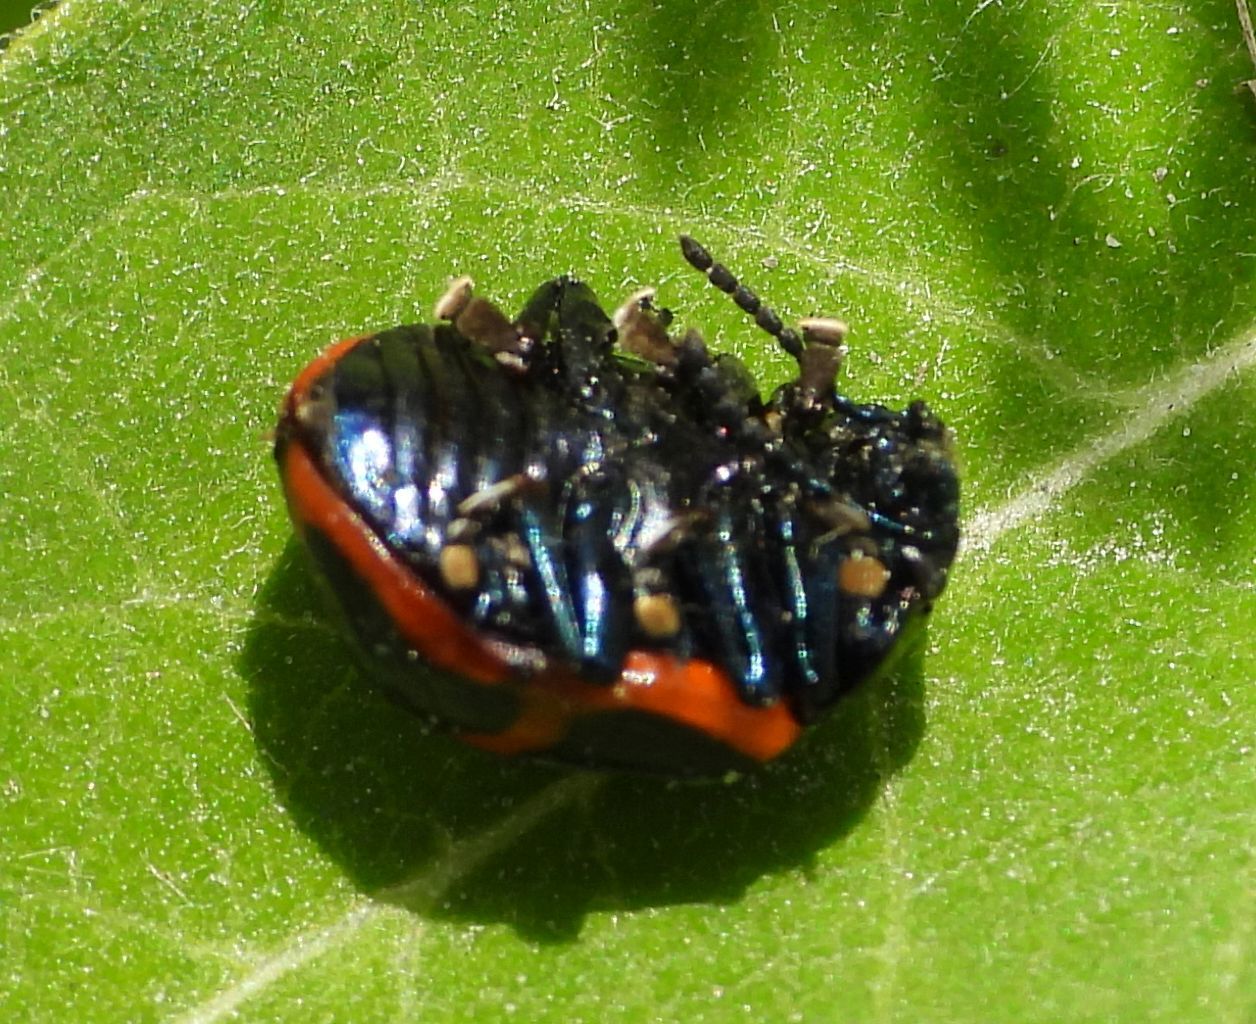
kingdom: Animalia
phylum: Arthropoda
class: Insecta
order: Coleoptera
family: Chrysomelidae
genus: Labidomera
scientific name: Labidomera clivicollis
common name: Swamp milkweed leaf beetle
